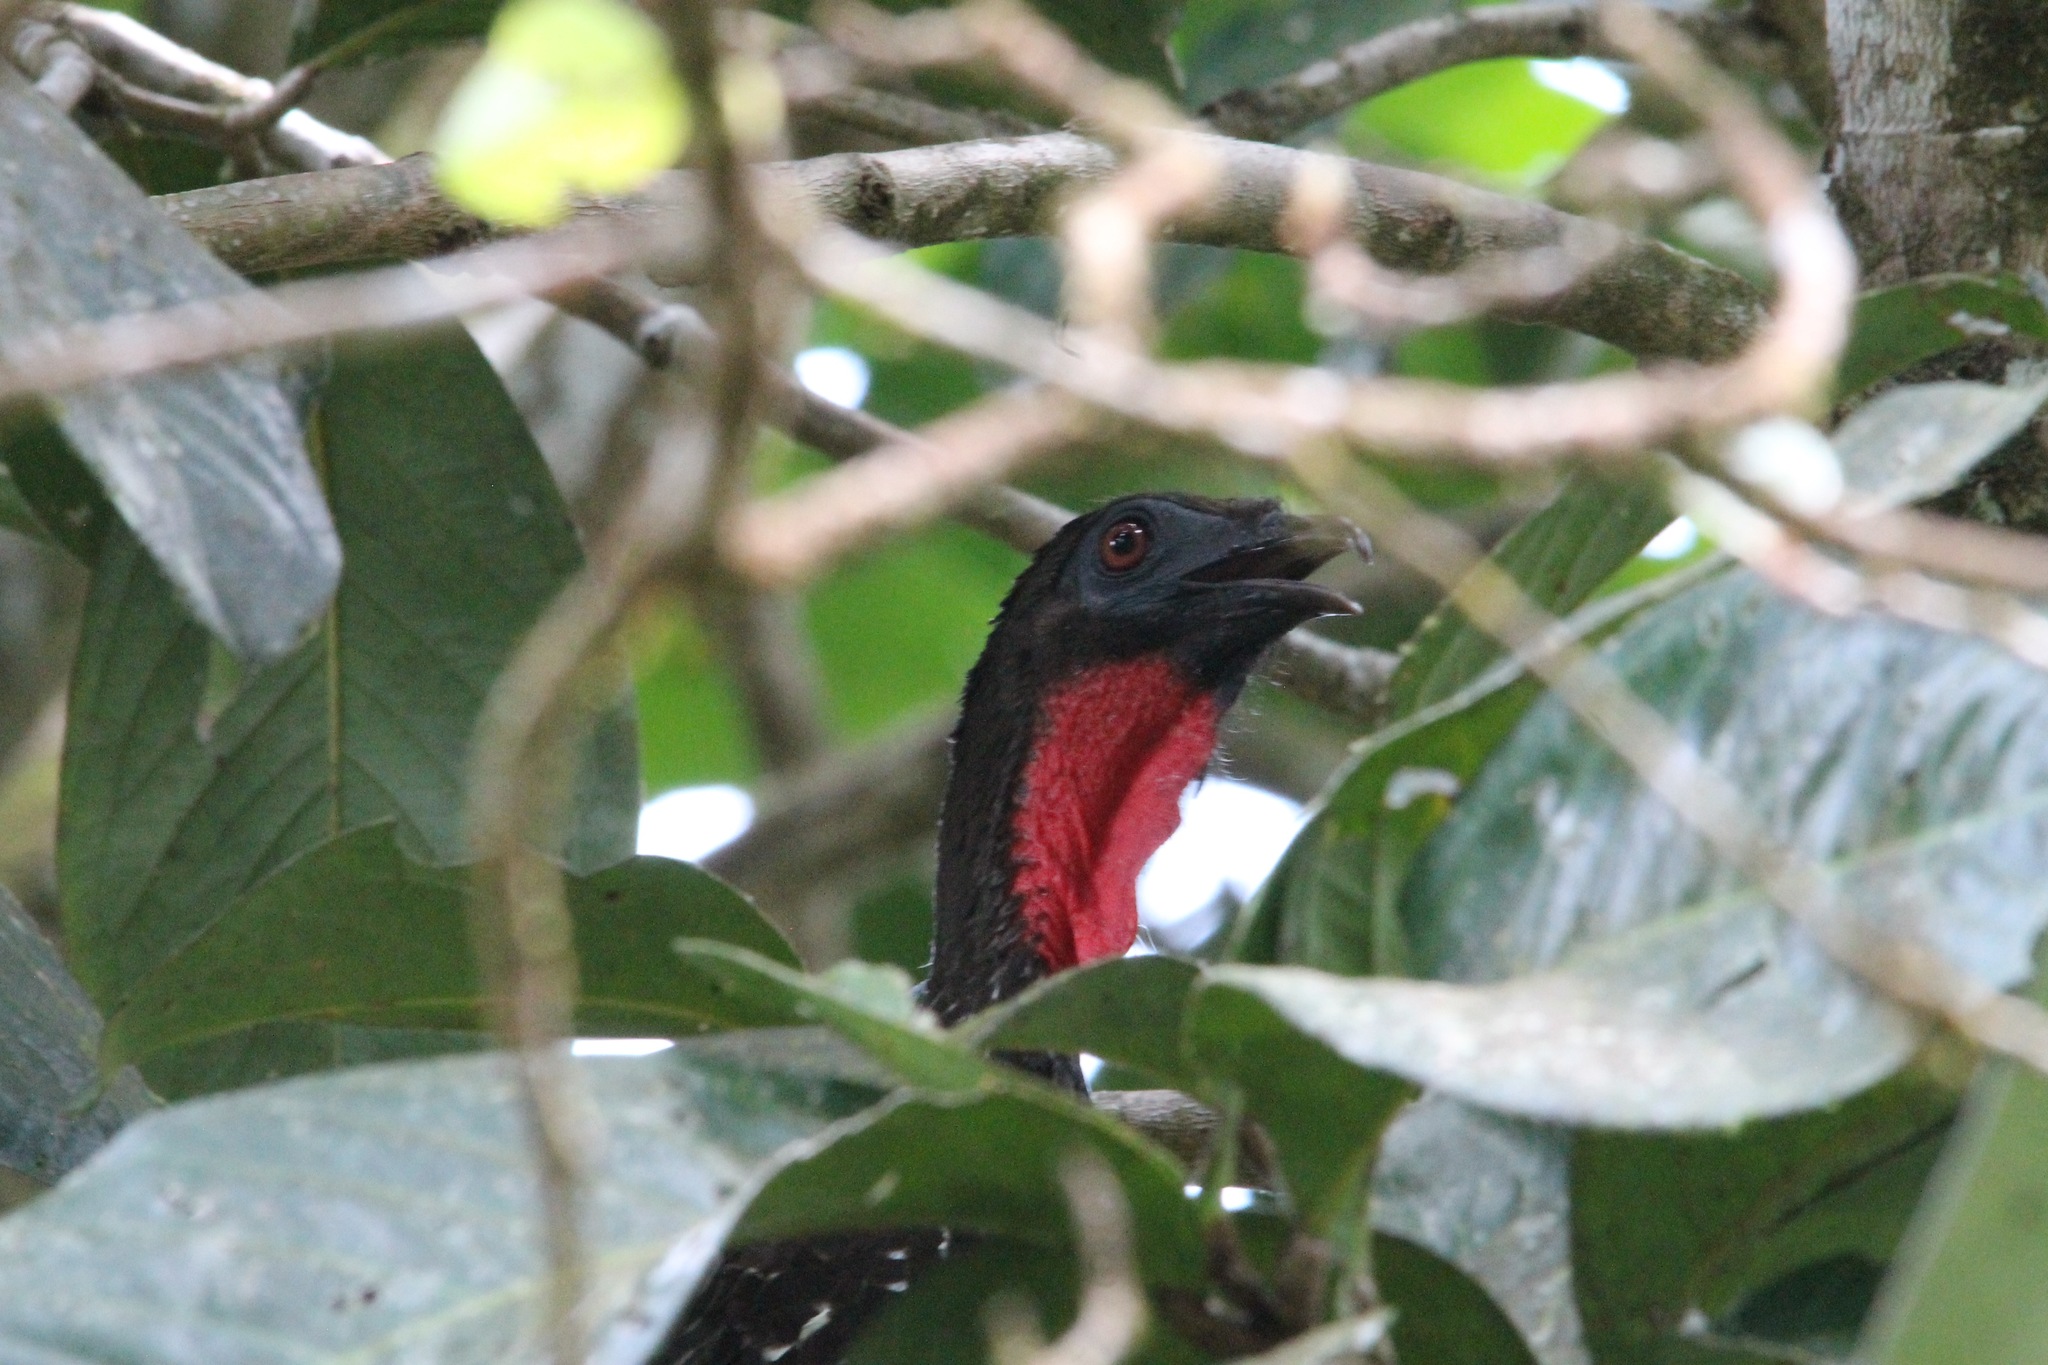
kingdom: Animalia
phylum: Chordata
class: Aves
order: Galliformes
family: Cracidae
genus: Penelope
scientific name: Penelope purpurascens
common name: Crested guan
